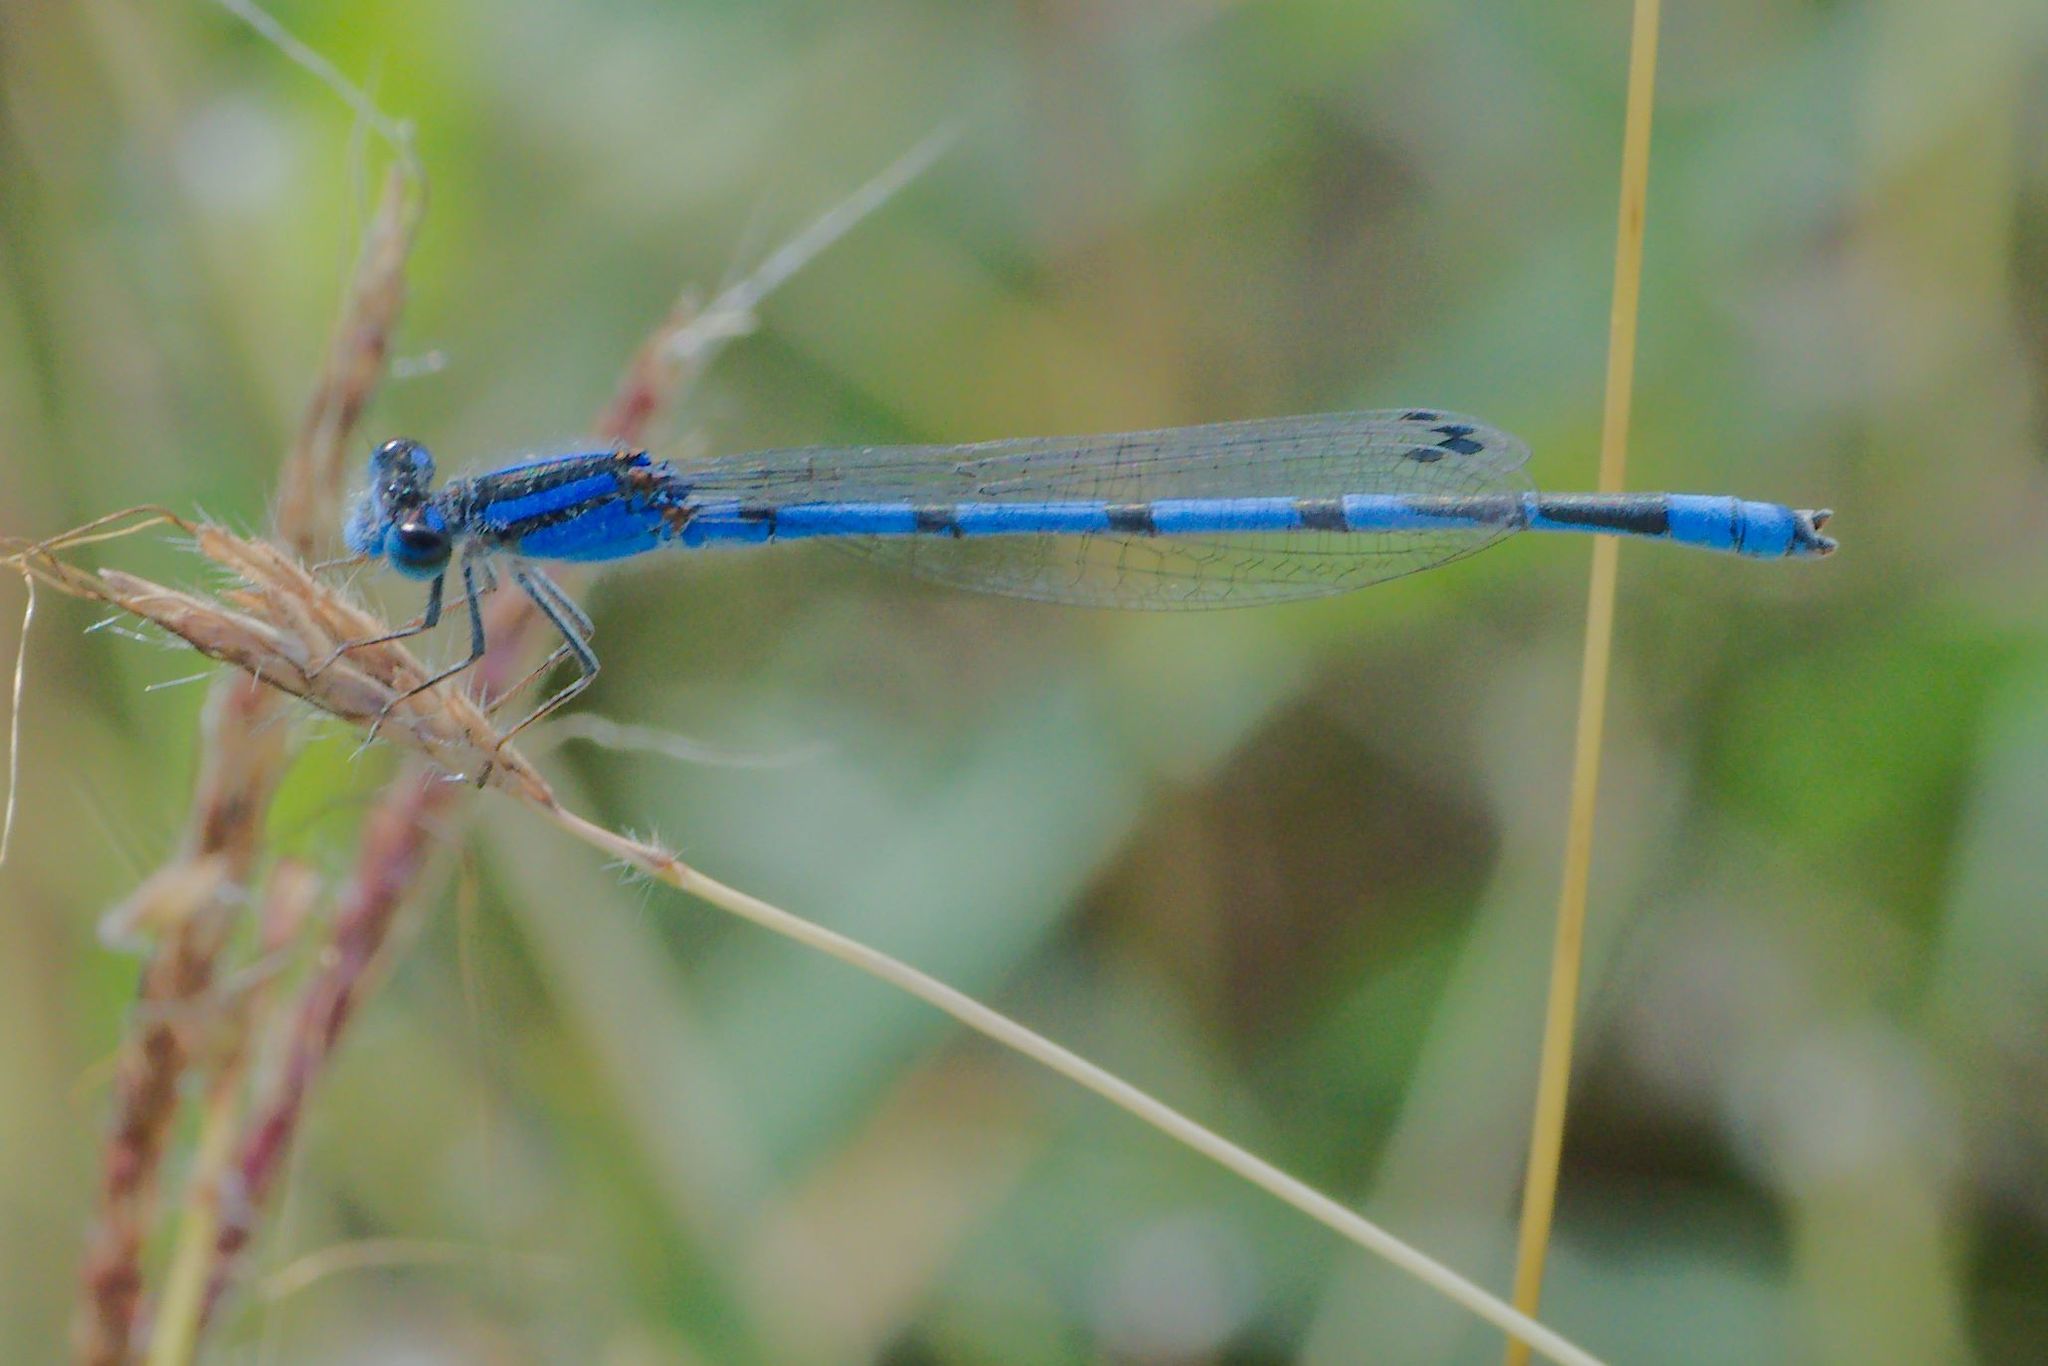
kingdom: Animalia
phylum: Arthropoda
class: Insecta
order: Odonata
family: Coenagrionidae
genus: Enallagma
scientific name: Enallagma civile
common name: Damselfly
